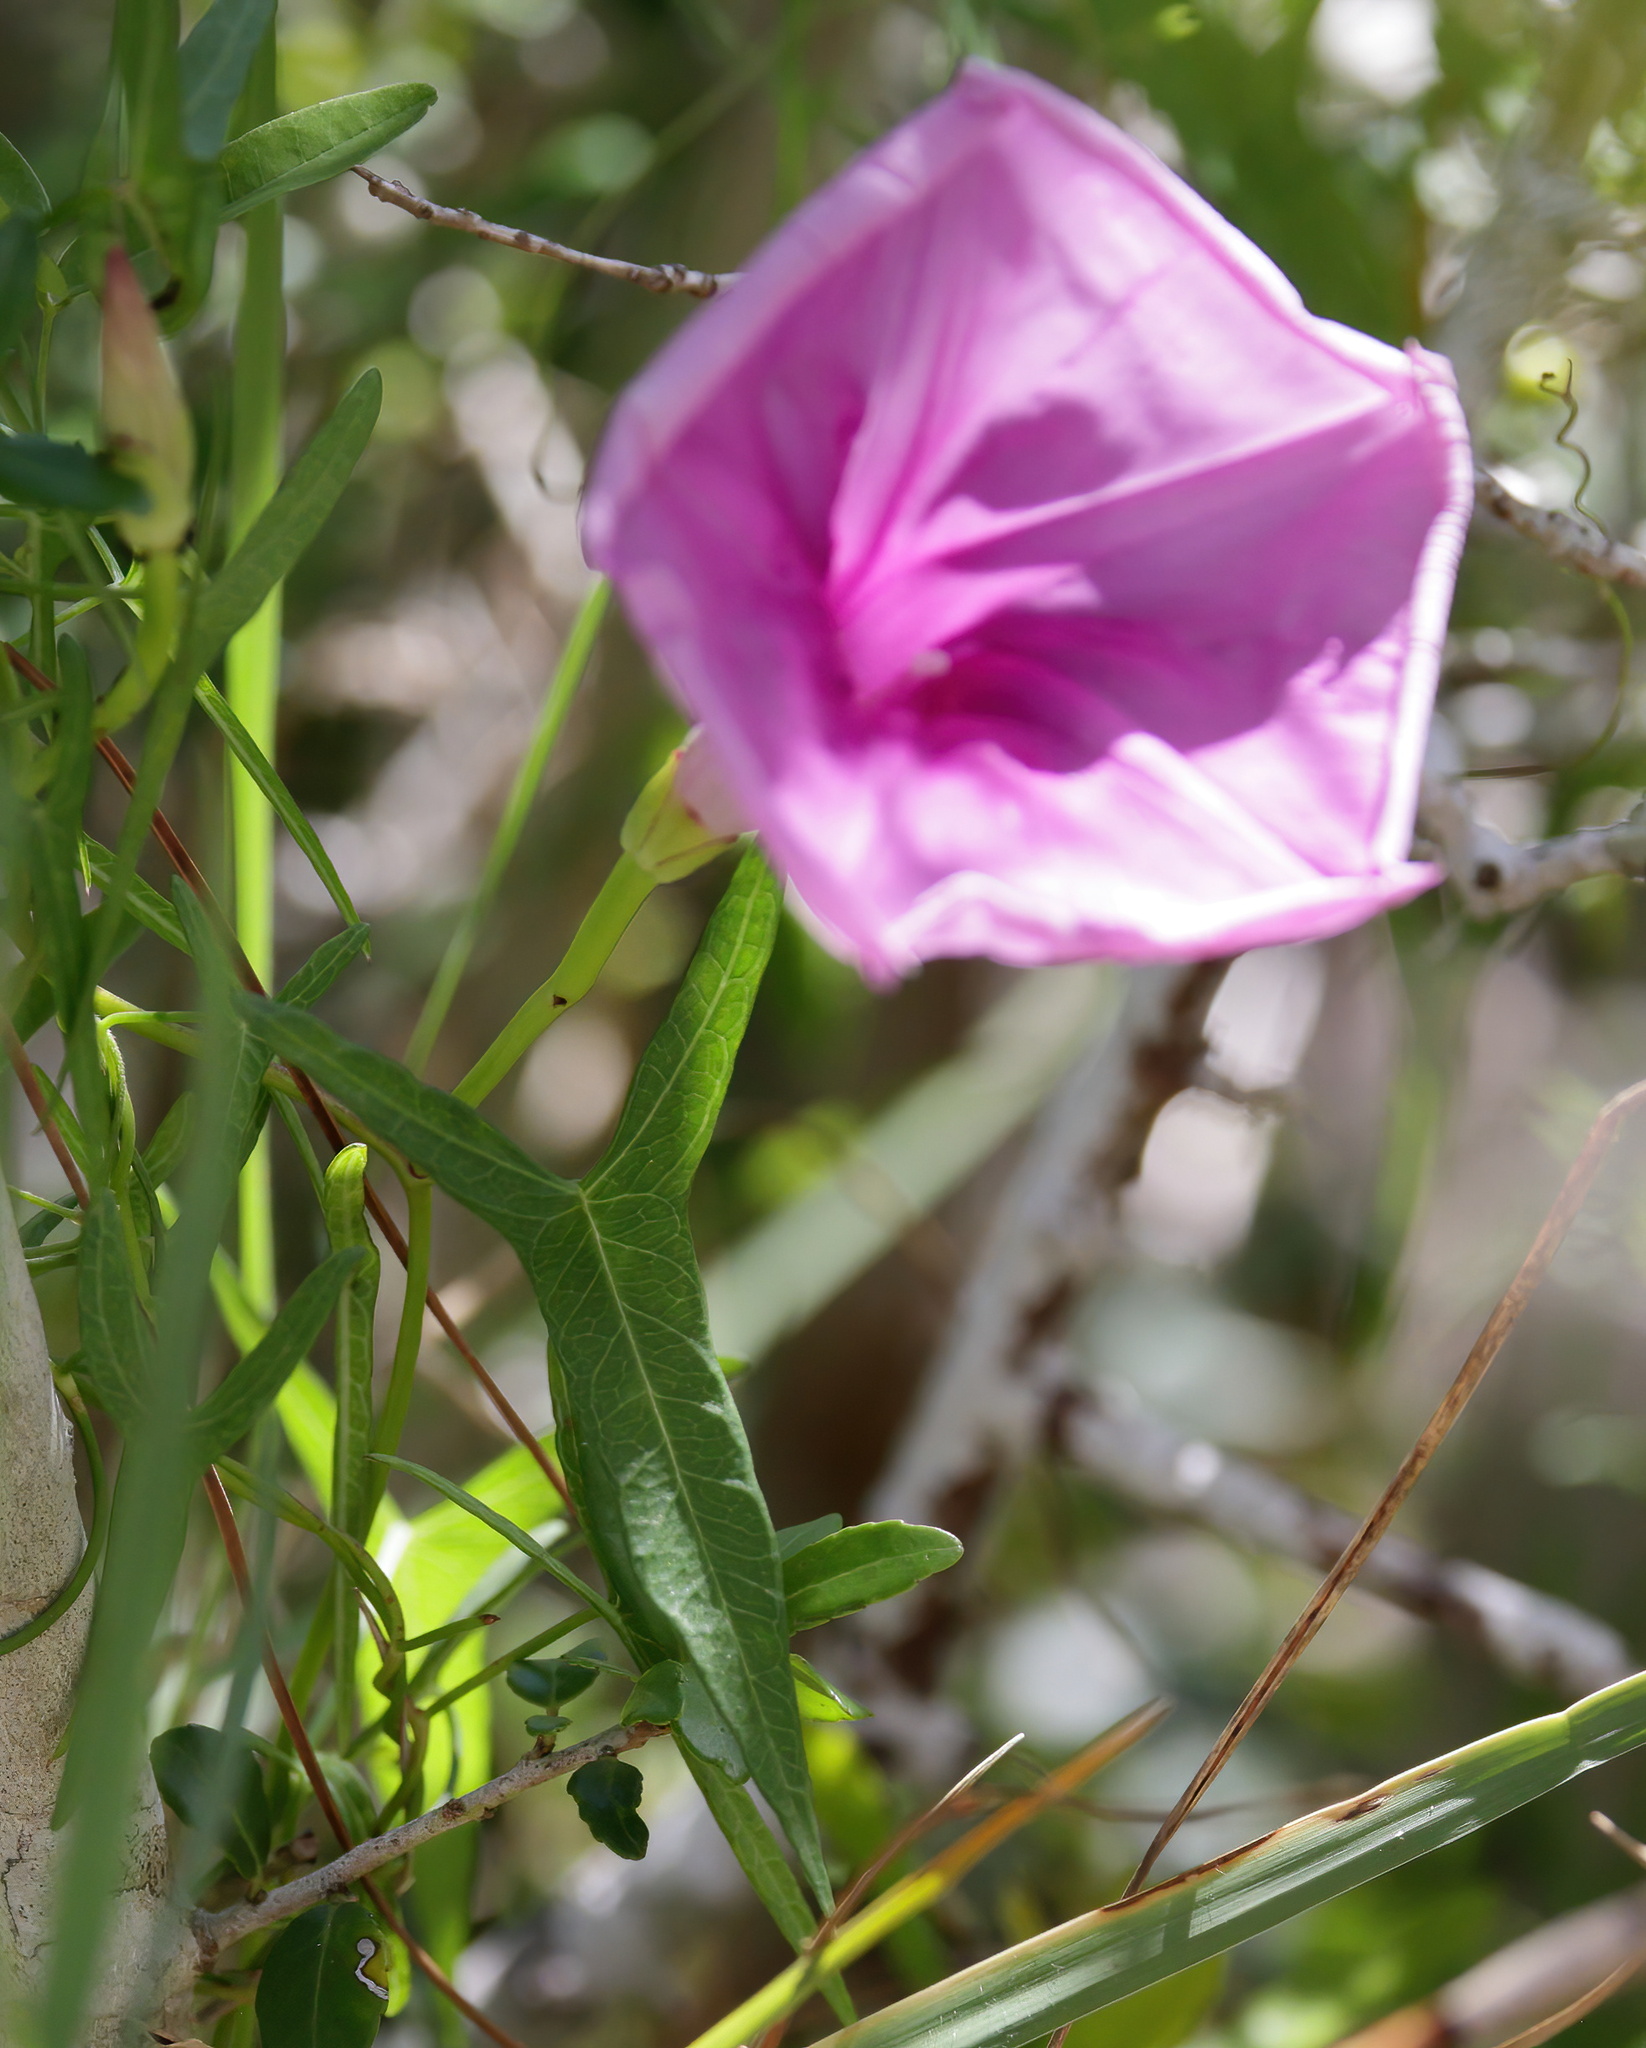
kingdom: Plantae
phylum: Tracheophyta
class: Magnoliopsida
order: Solanales
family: Convolvulaceae
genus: Ipomoea
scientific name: Ipomoea sagittata
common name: Saltmarsh morning glory
